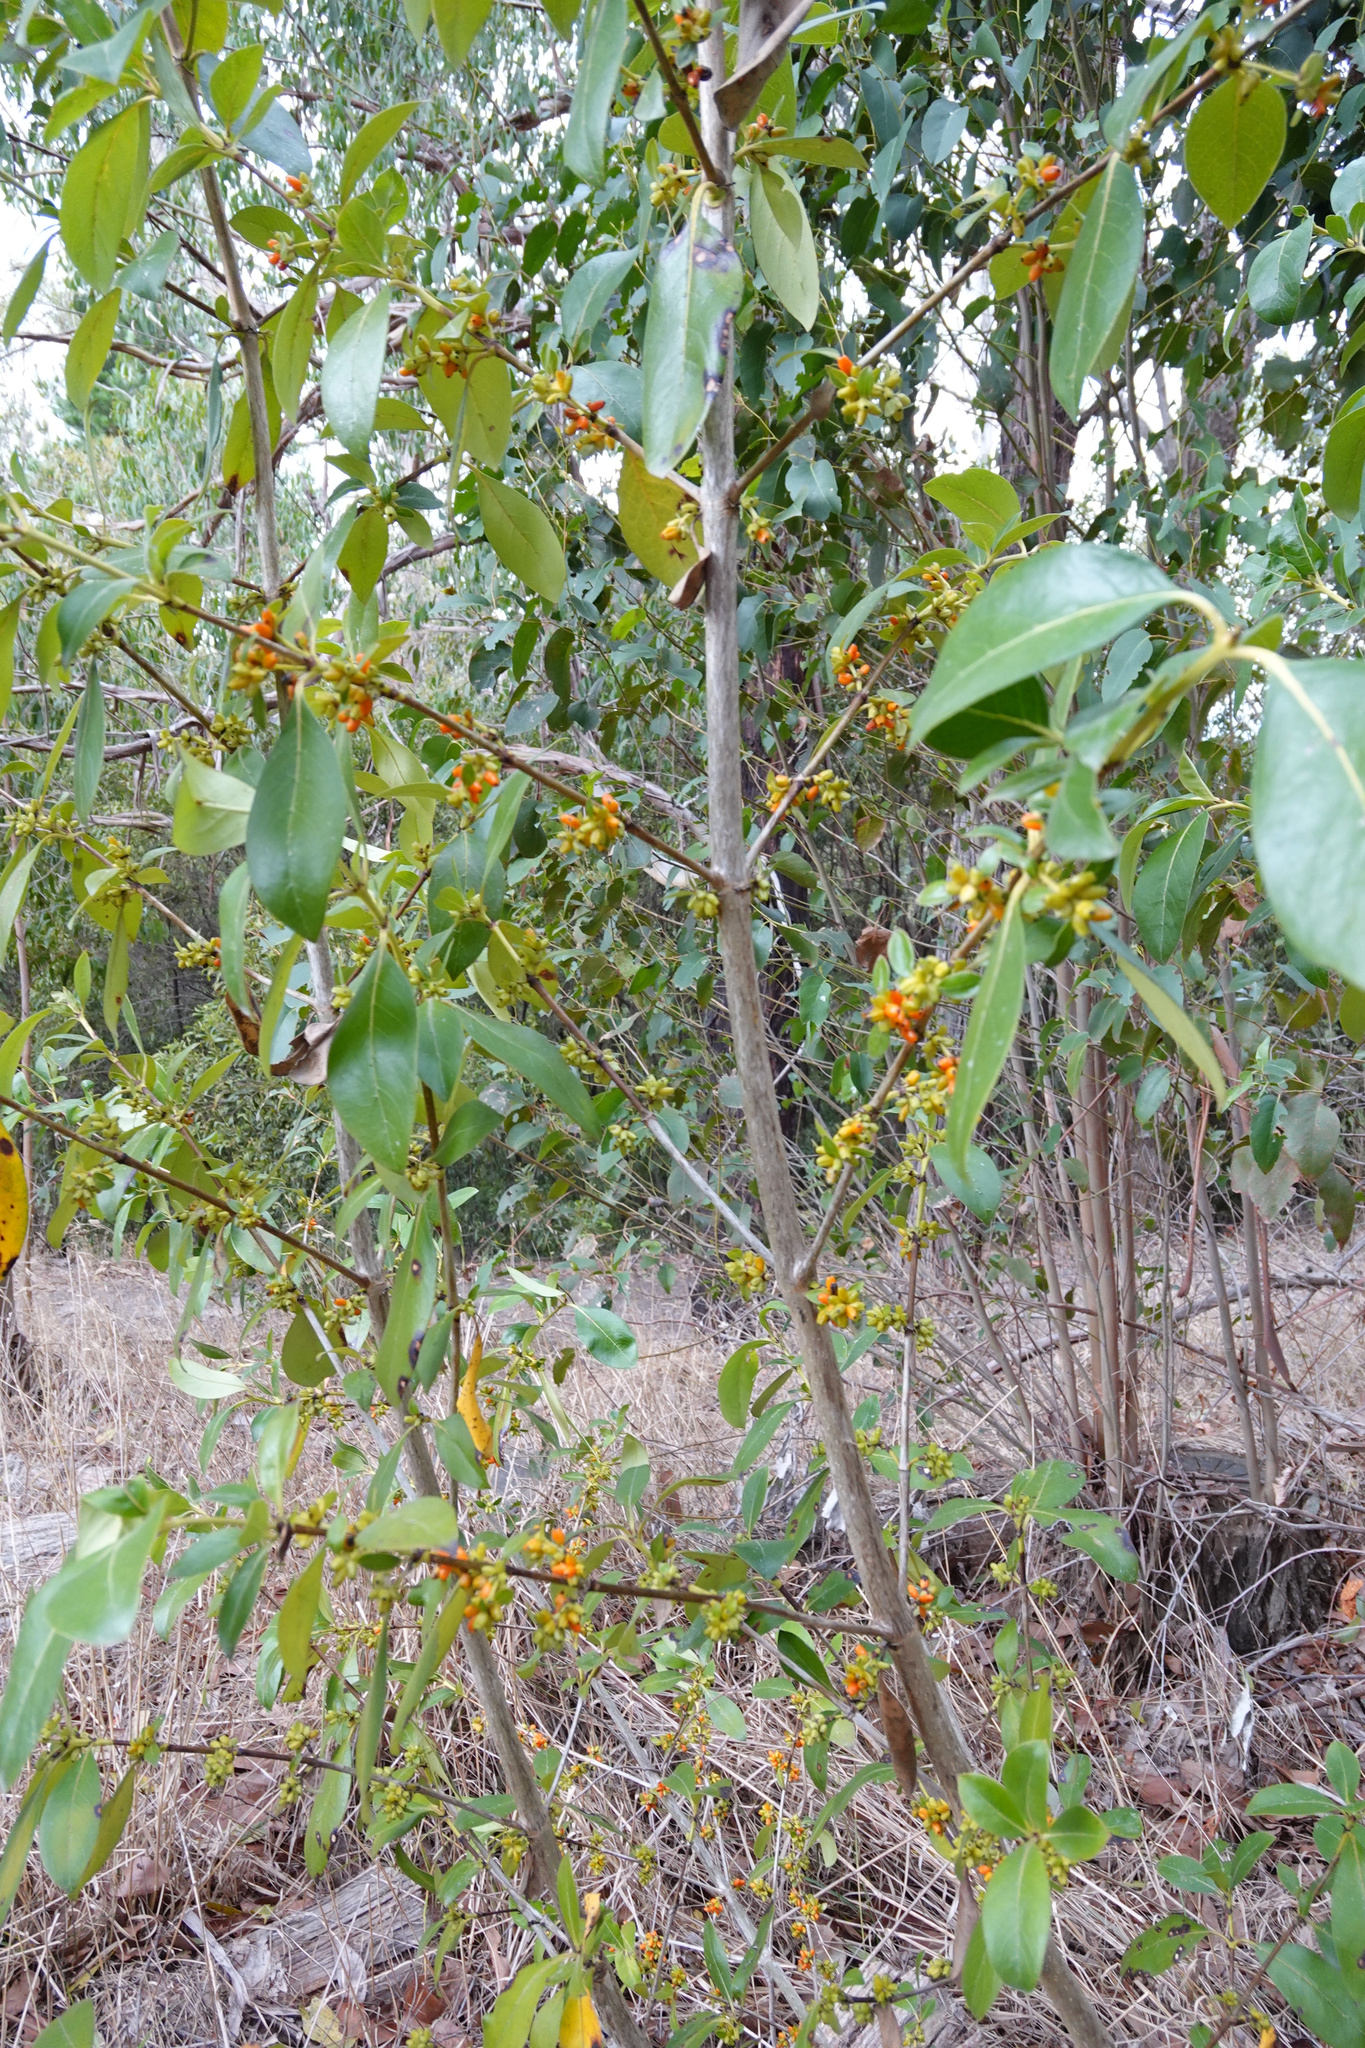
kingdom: Plantae
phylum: Tracheophyta
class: Magnoliopsida
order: Gentianales
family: Rubiaceae
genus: Coprosma
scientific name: Coprosma robusta
